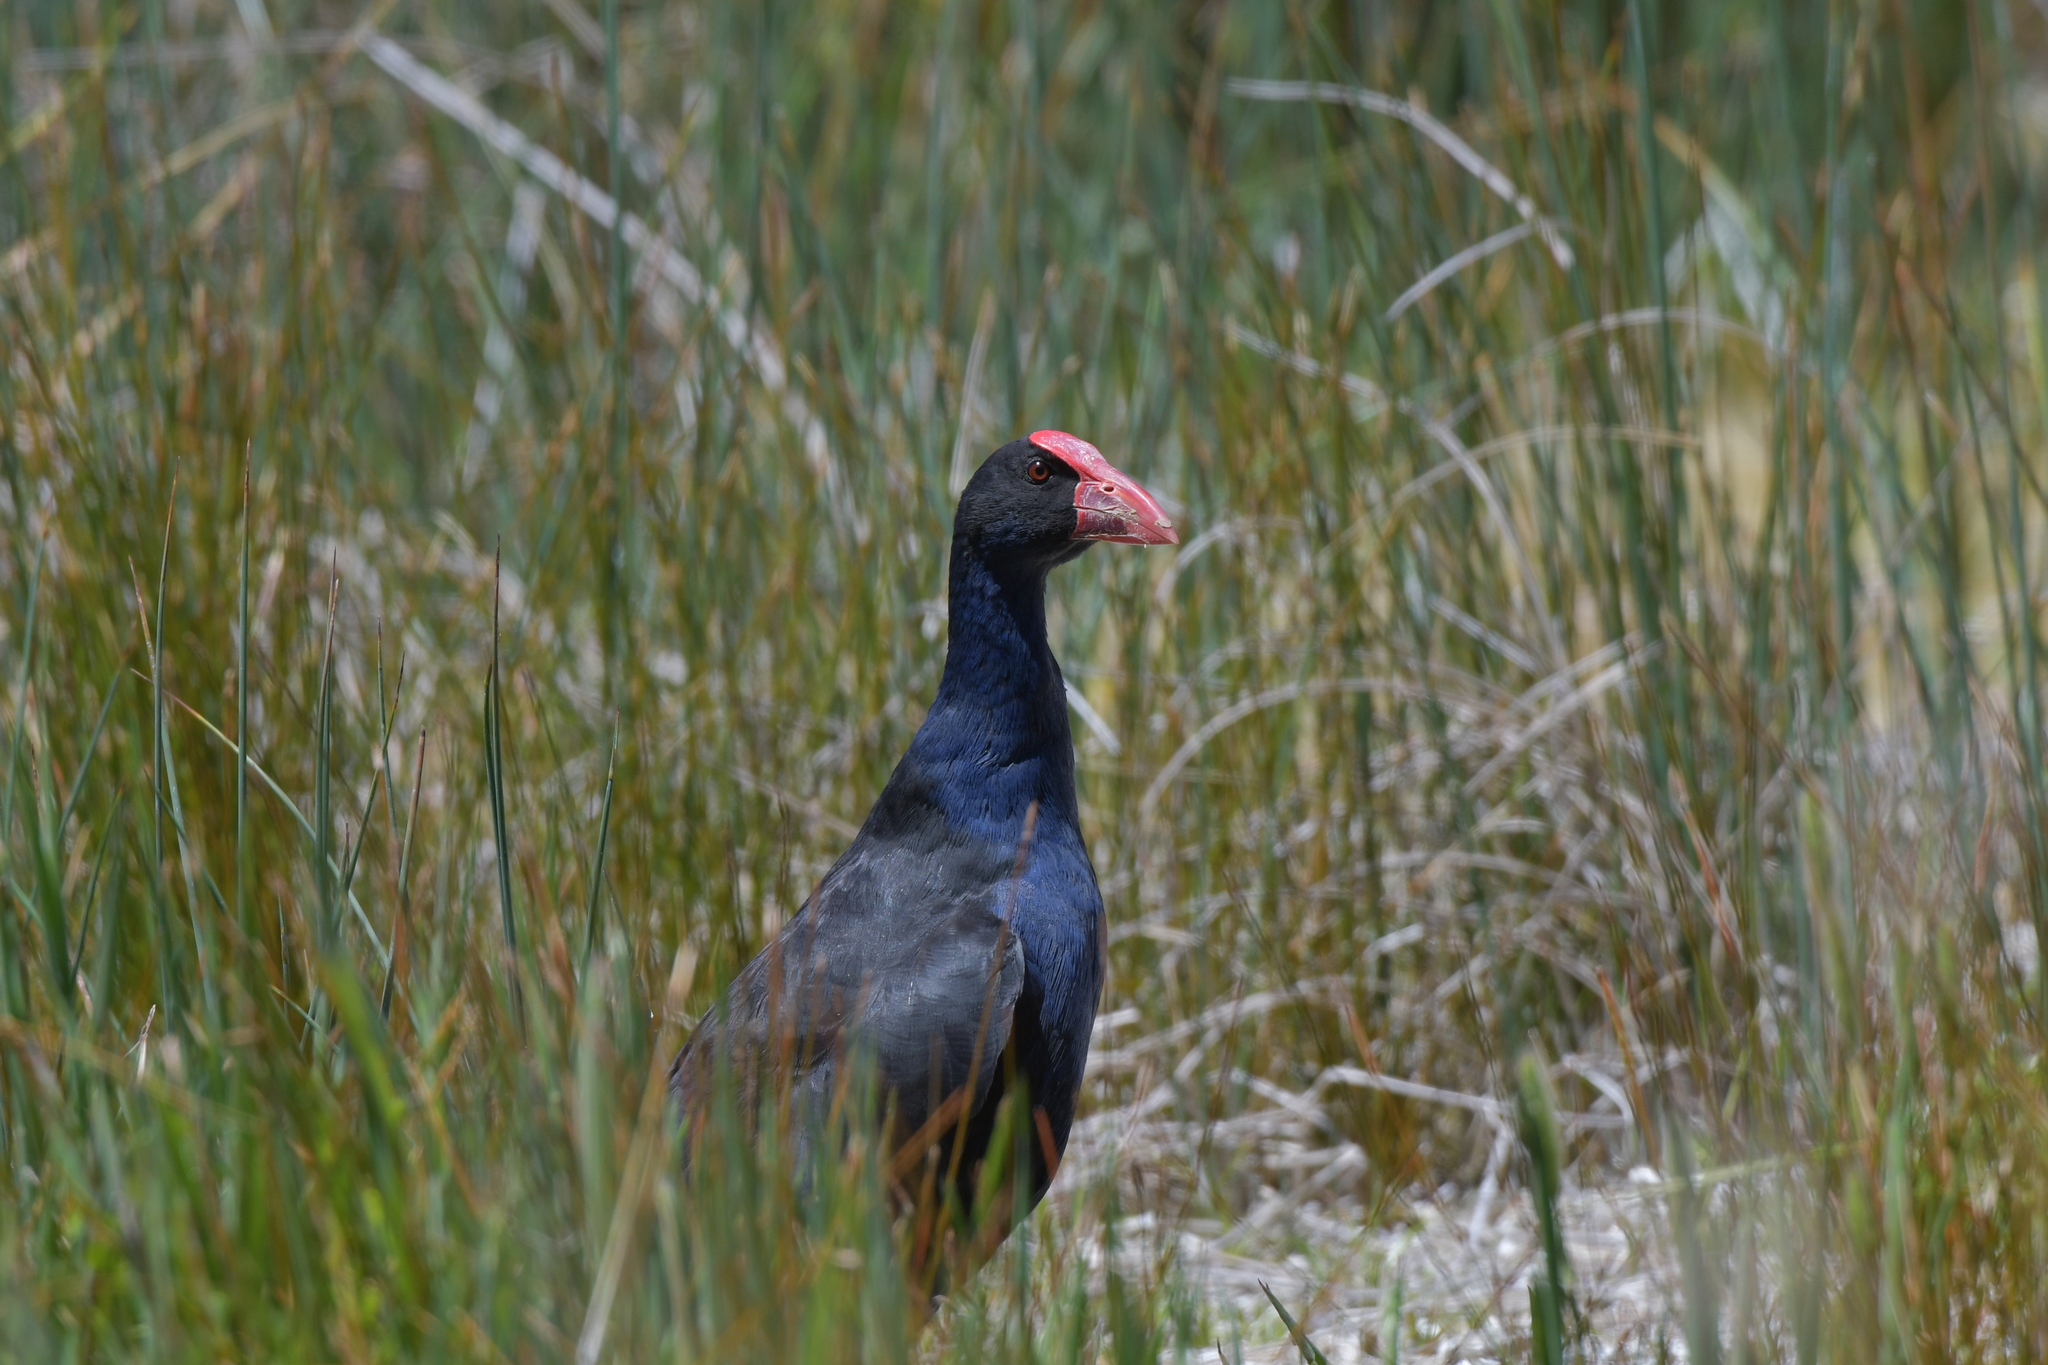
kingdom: Animalia
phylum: Chordata
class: Aves
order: Gruiformes
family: Rallidae
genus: Porphyrio
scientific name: Porphyrio melanotus
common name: Australasian swamphen
